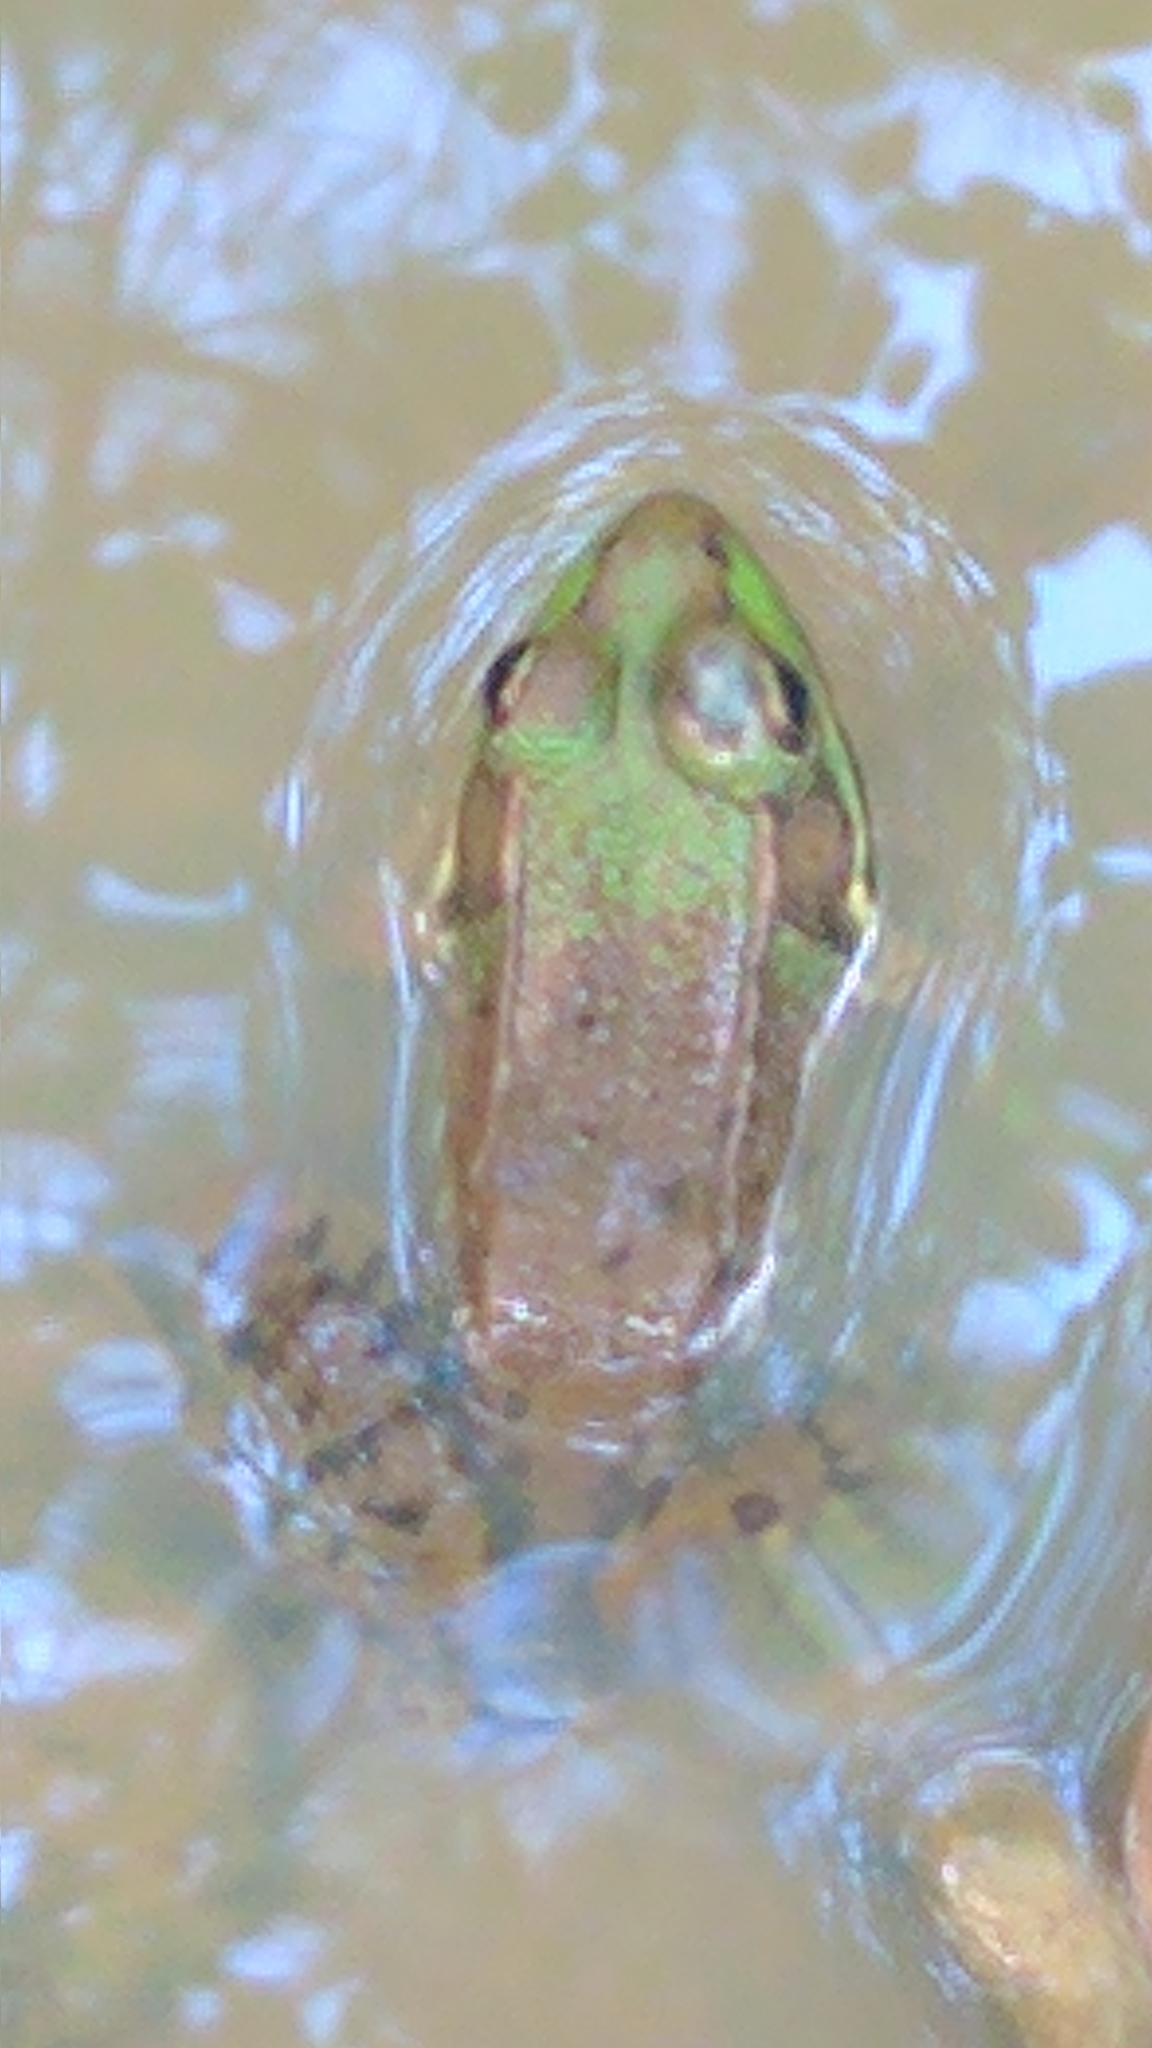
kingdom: Animalia
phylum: Chordata
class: Amphibia
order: Anura
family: Ranidae
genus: Lithobates
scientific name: Lithobates clamitans
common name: Green frog
